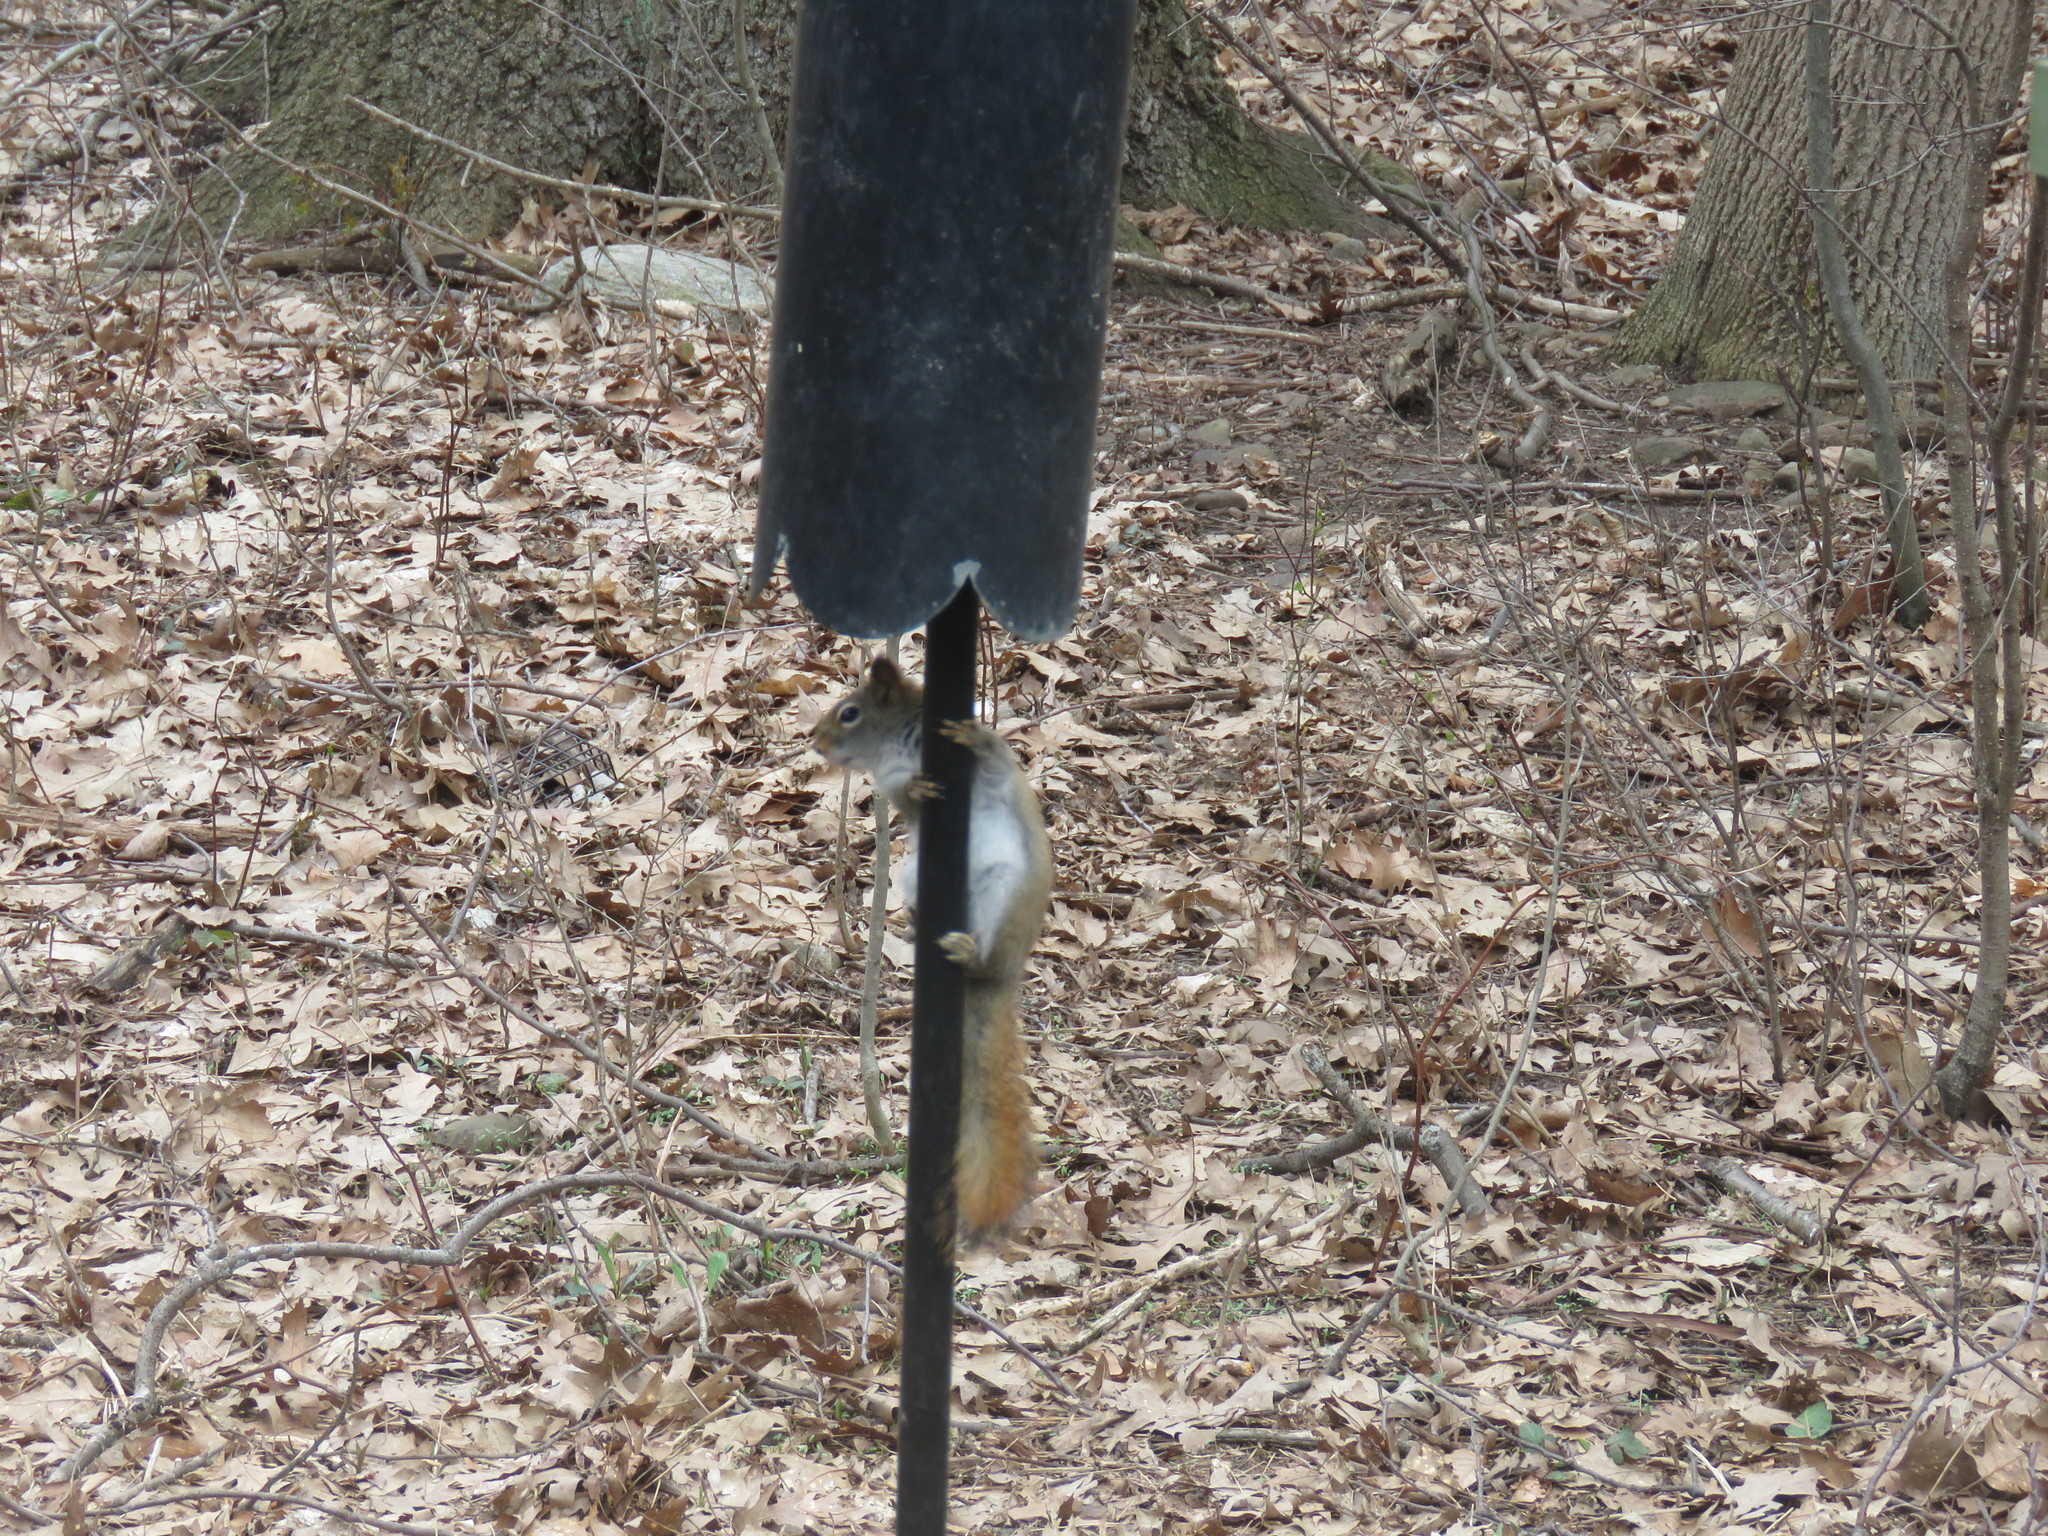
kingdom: Animalia
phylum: Chordata
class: Mammalia
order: Rodentia
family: Sciuridae
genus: Tamiasciurus
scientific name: Tamiasciurus hudsonicus
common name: Red squirrel
